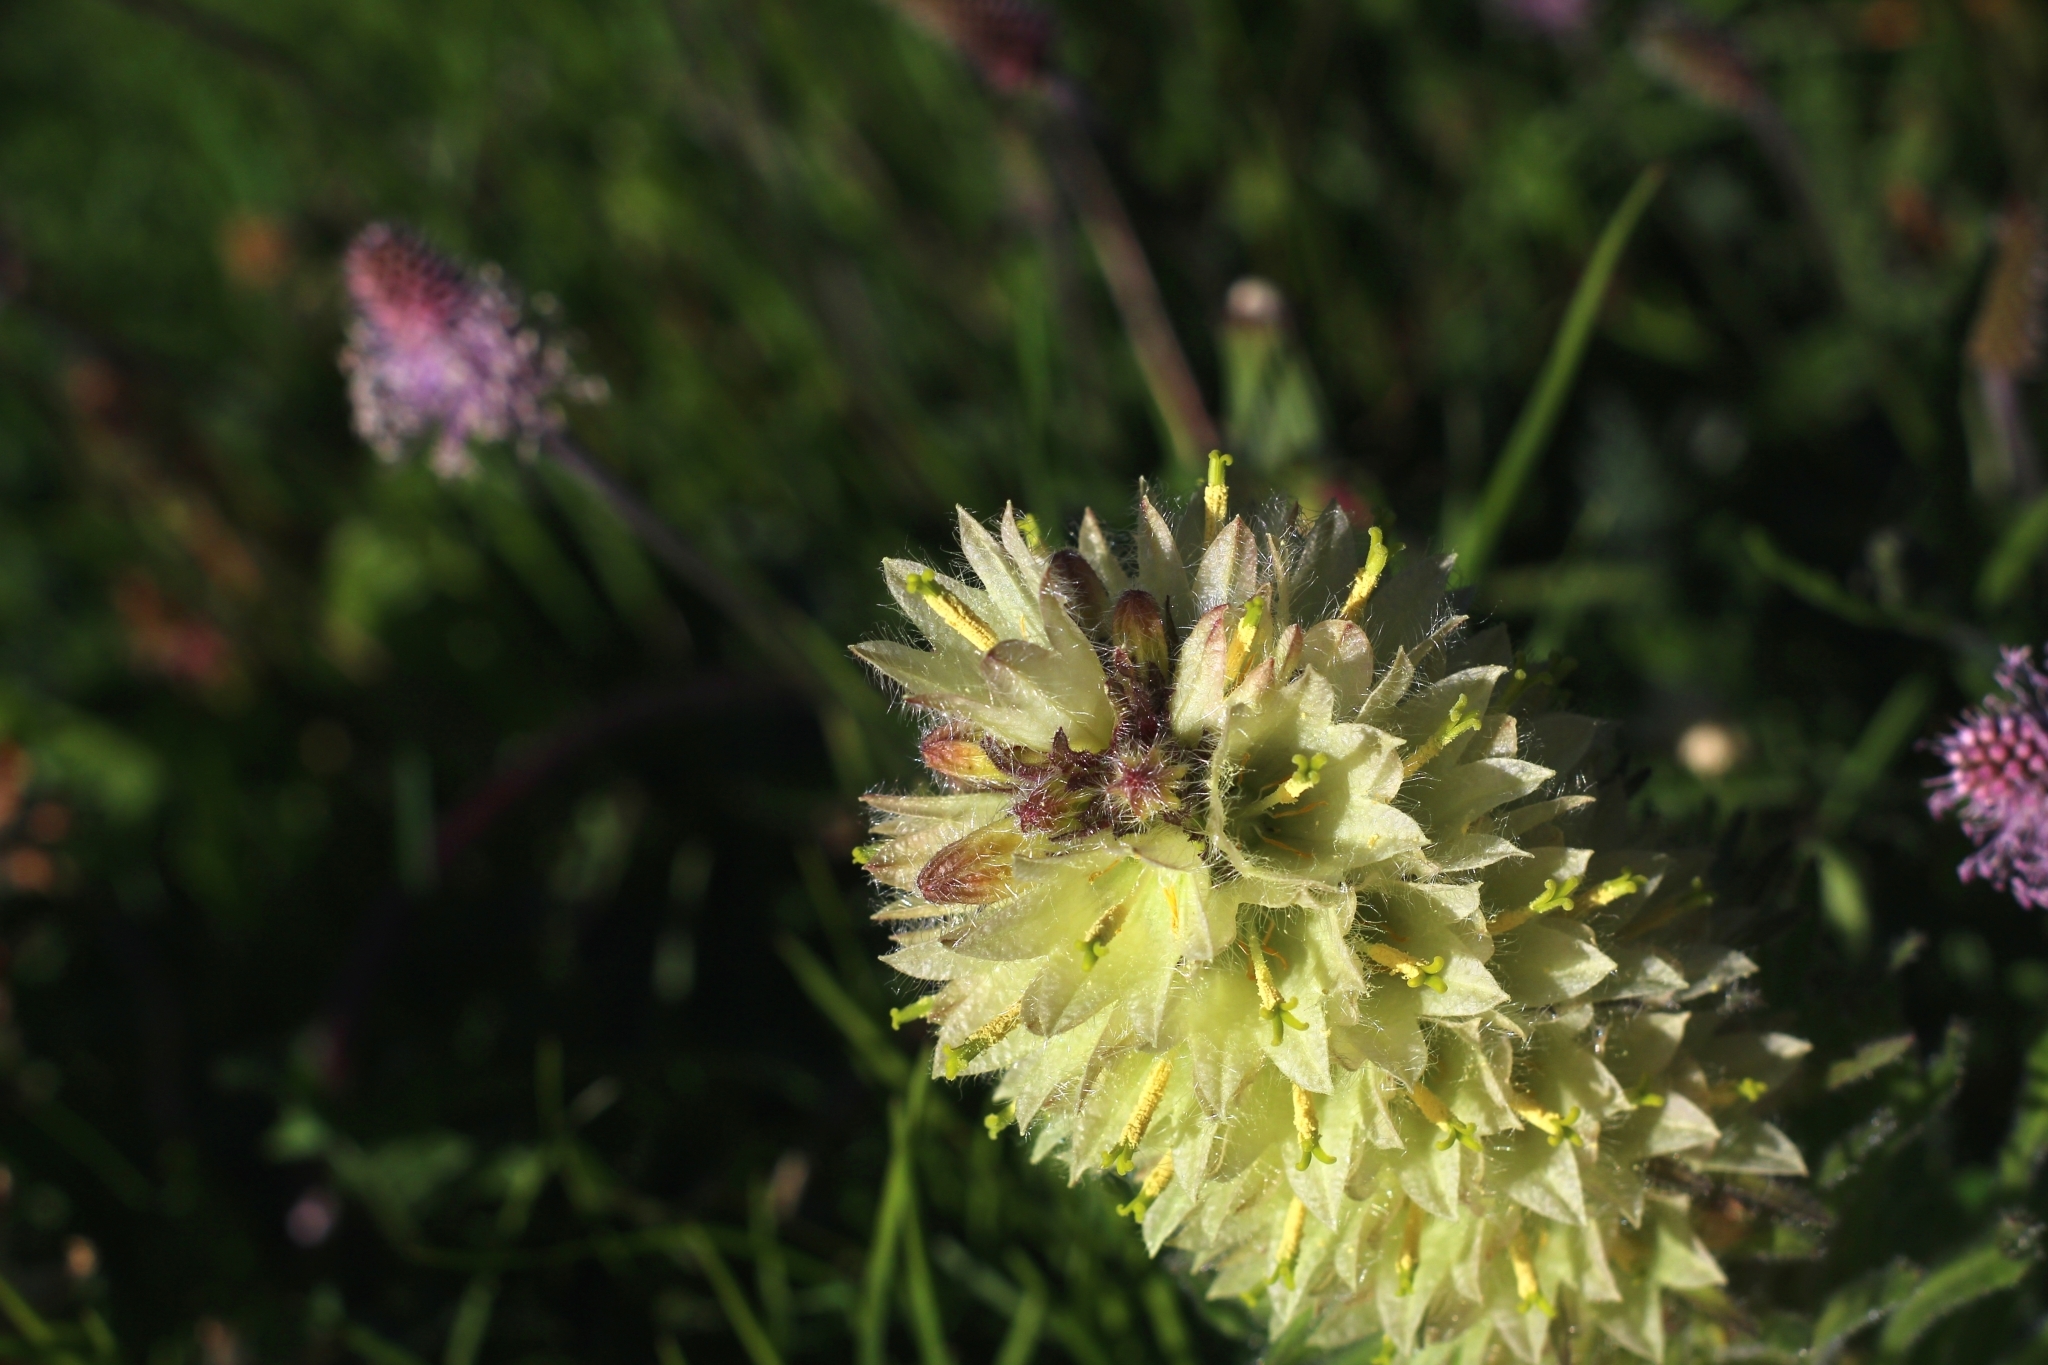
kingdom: Plantae
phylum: Tracheophyta
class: Magnoliopsida
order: Asterales
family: Campanulaceae
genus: Campanula
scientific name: Campanula thyrsoides
